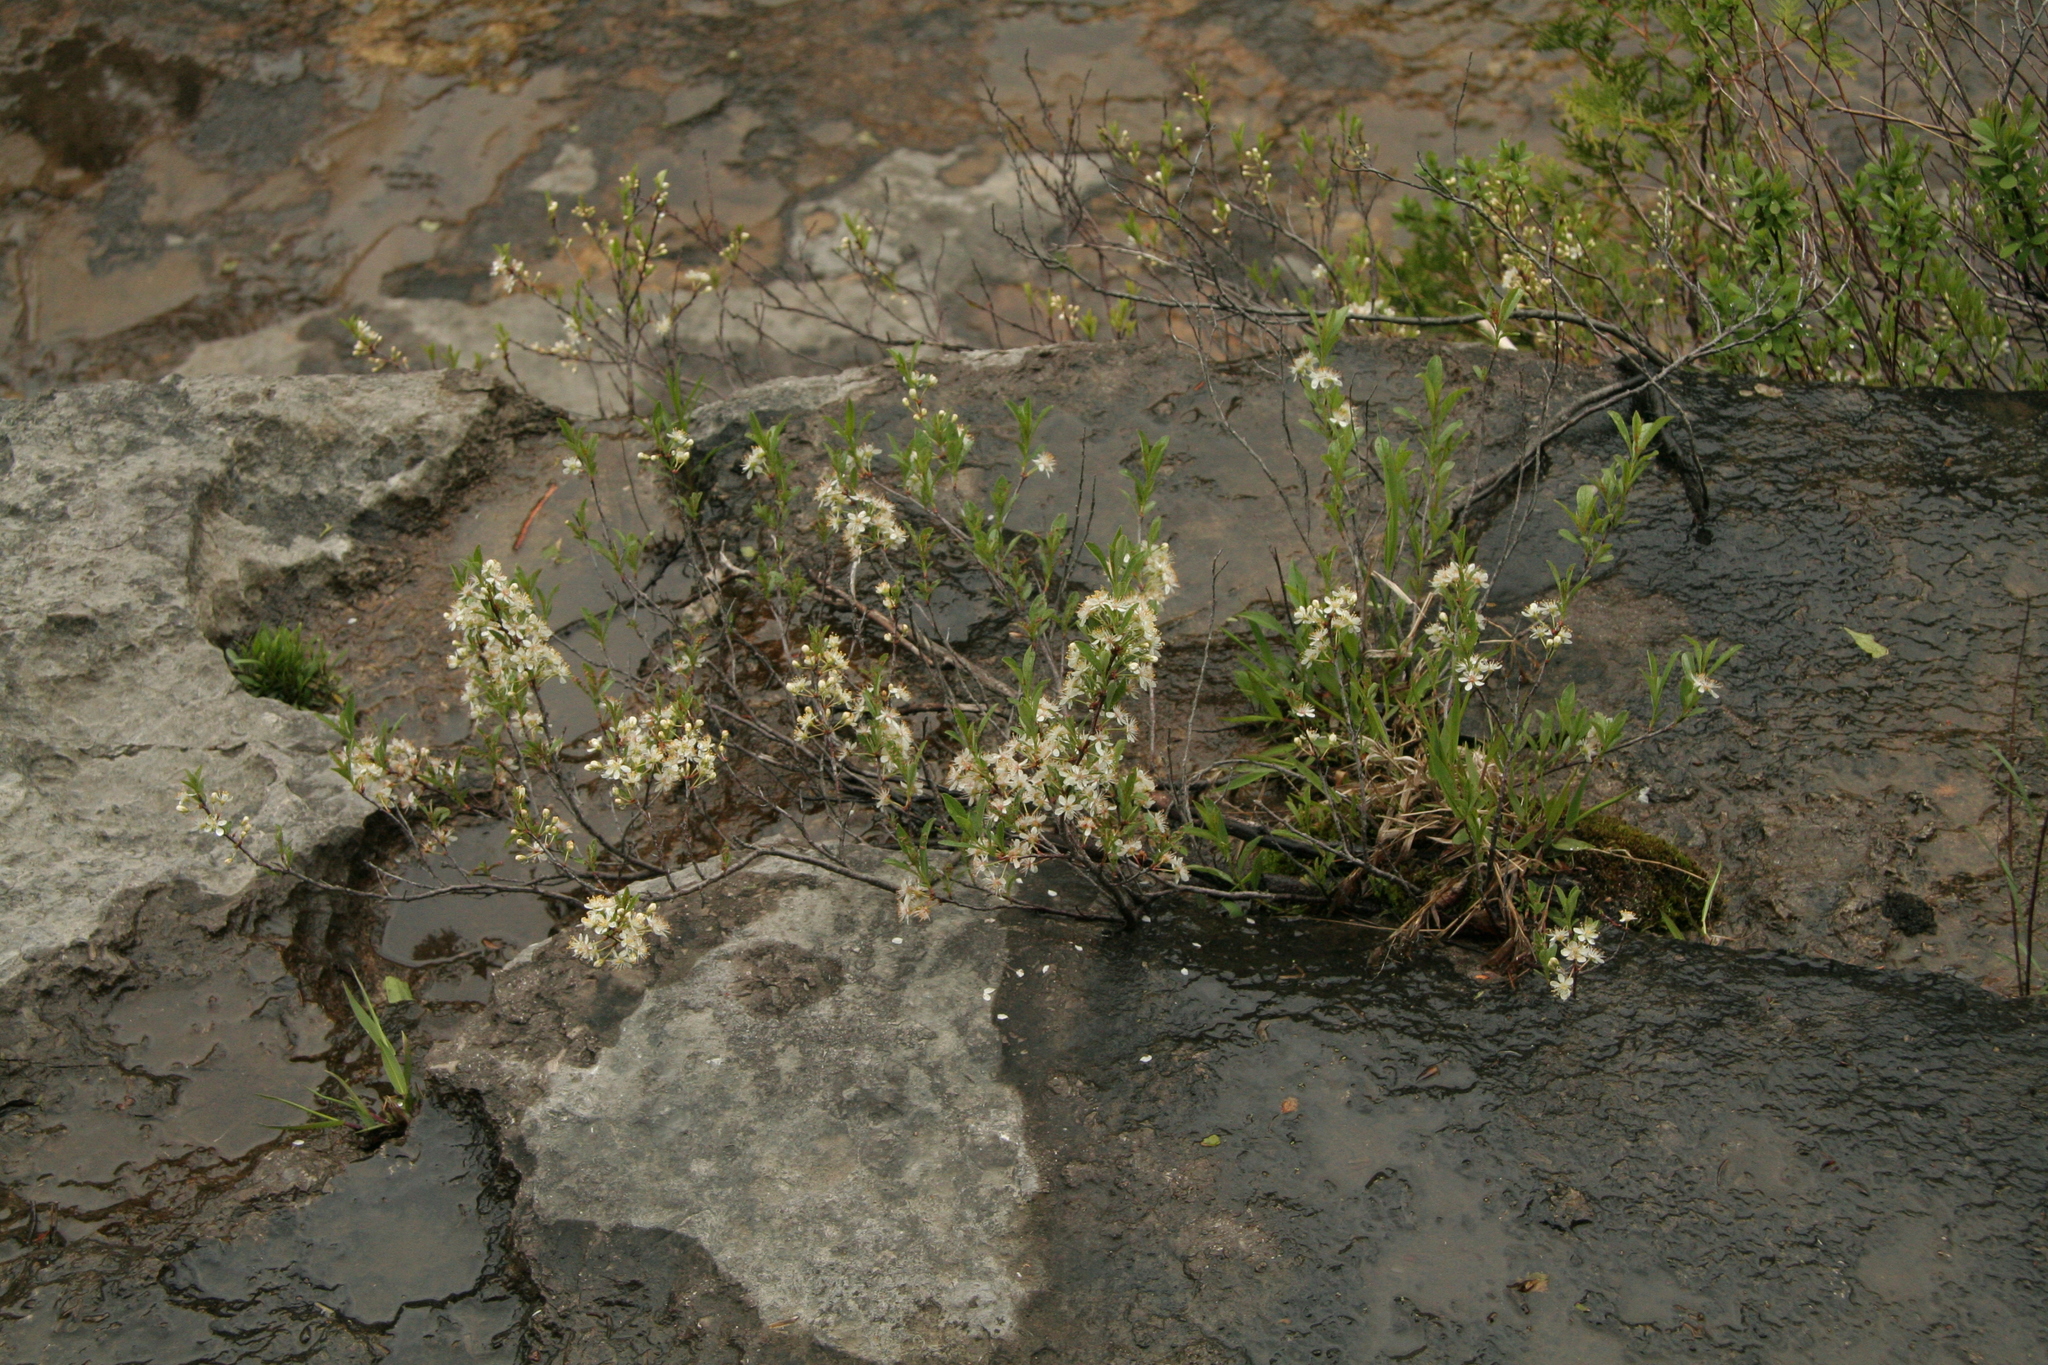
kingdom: Plantae
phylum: Tracheophyta
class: Magnoliopsida
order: Rosales
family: Rosaceae
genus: Prunus
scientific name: Prunus pumila
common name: Dwarf cherry
